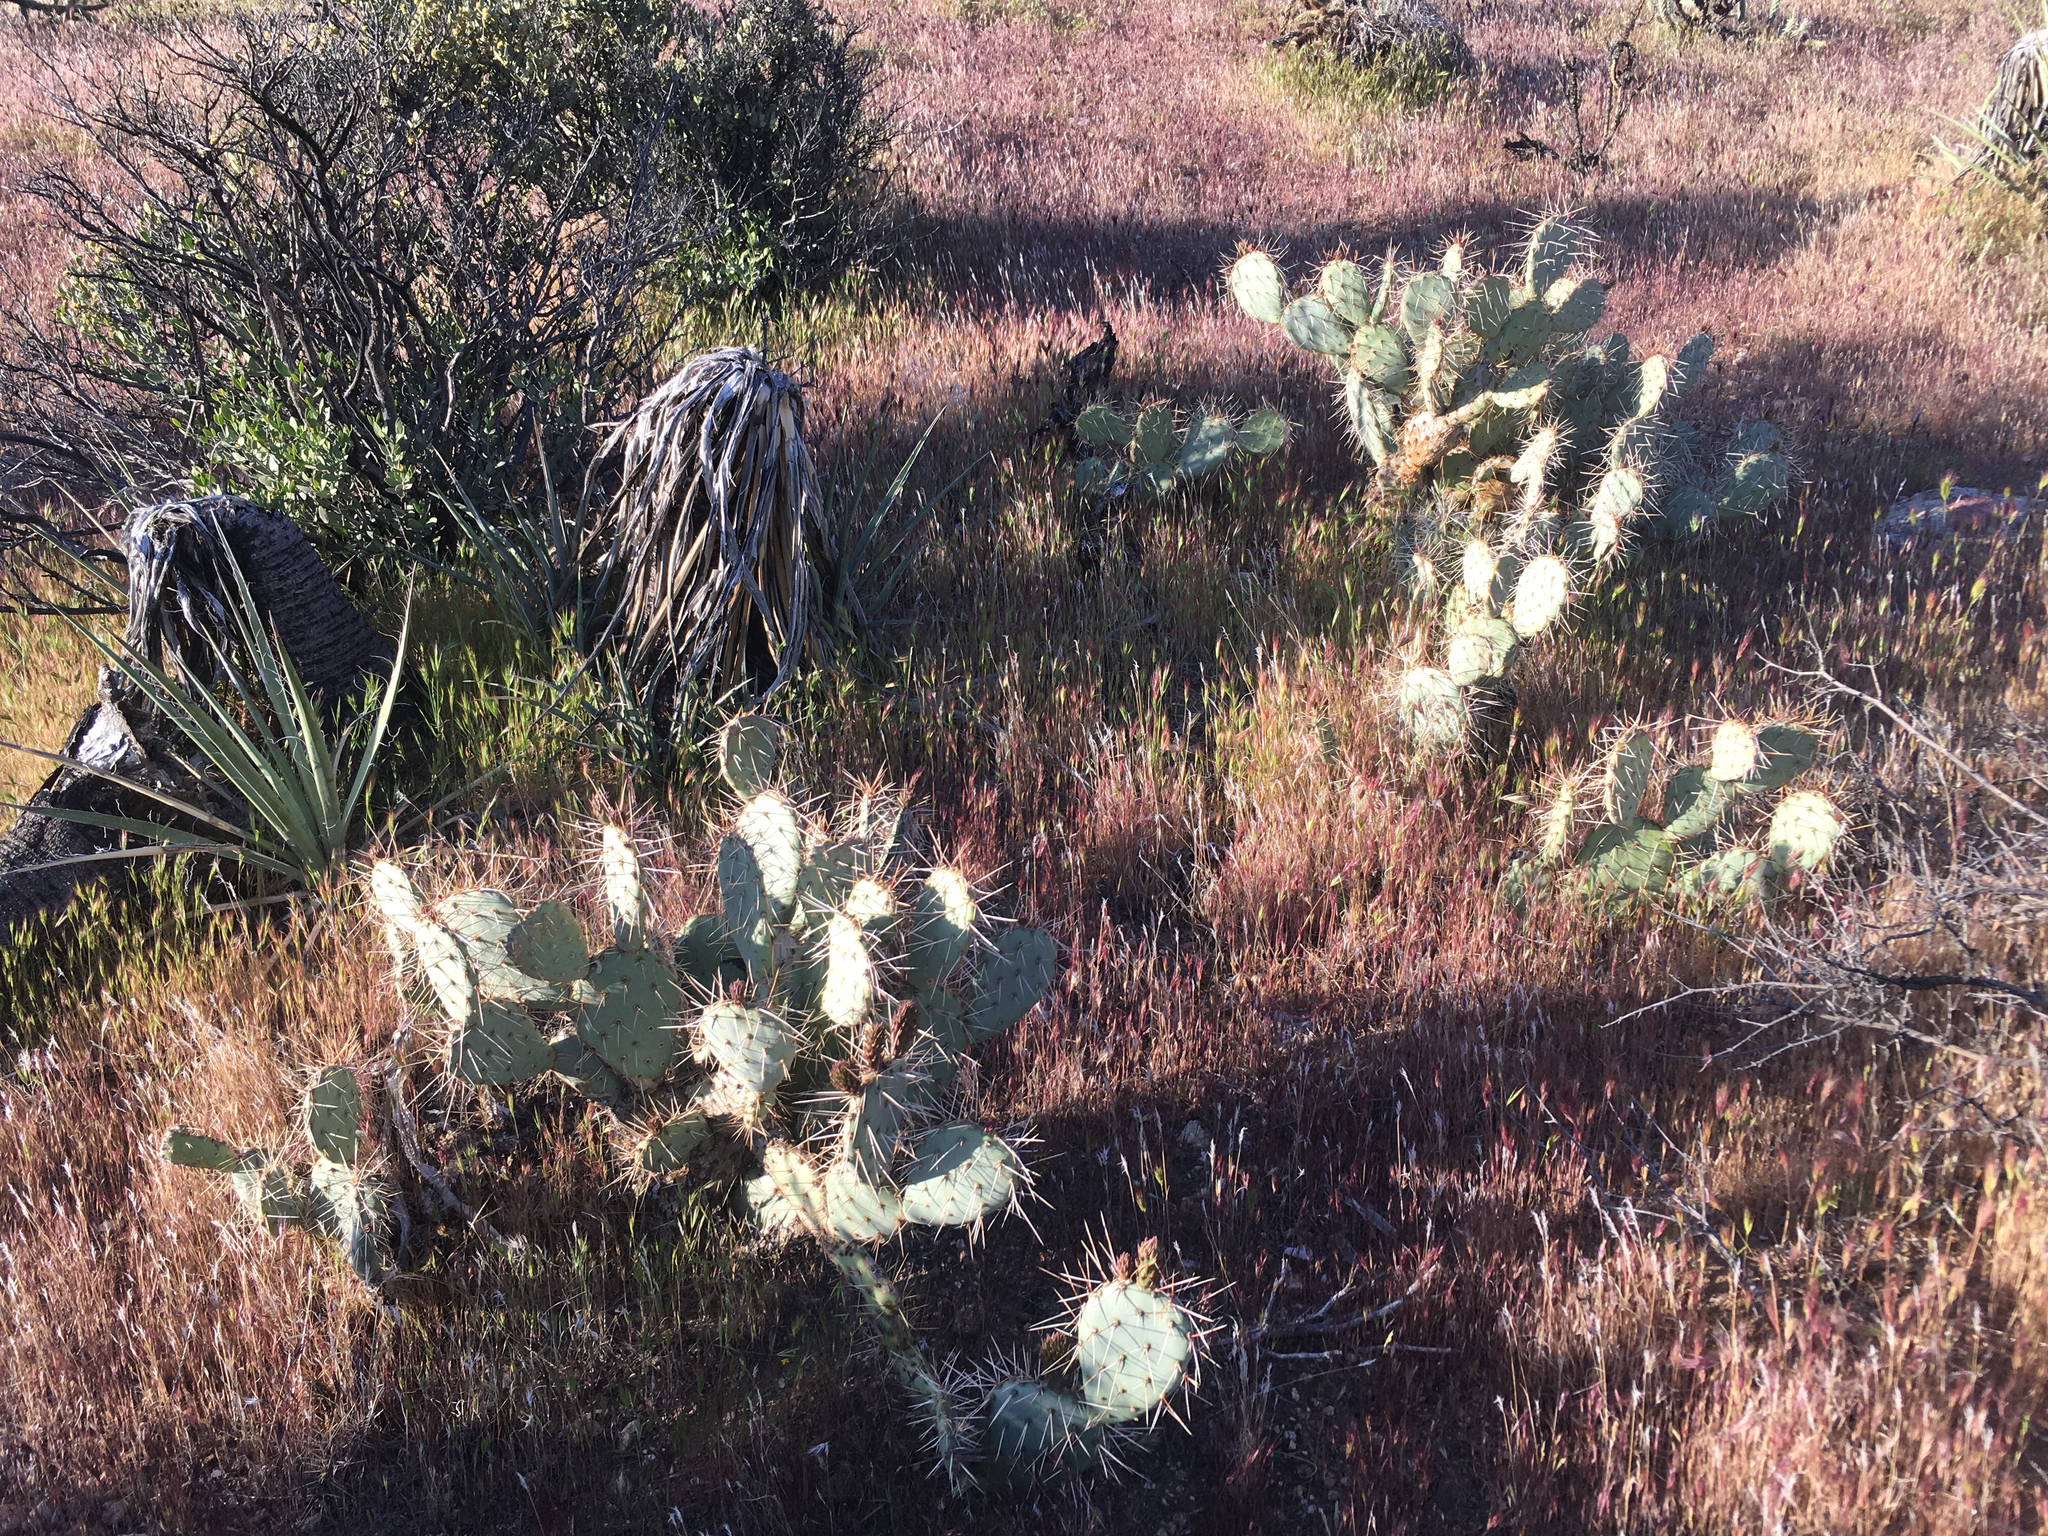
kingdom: Plantae
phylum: Tracheophyta
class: Magnoliopsida
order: Caryophyllales
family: Cactaceae
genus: Opuntia
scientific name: Opuntia phaeacantha
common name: New mexico prickly-pear
